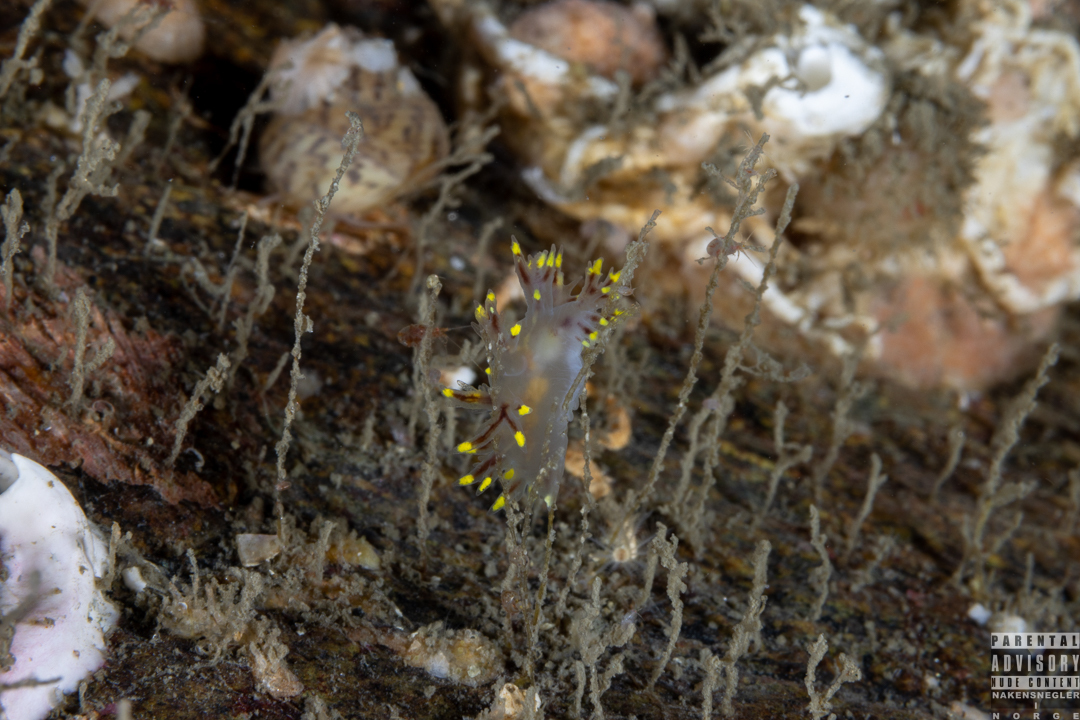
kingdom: Animalia
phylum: Mollusca
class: Gastropoda
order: Nudibranchia
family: Dendronotidae
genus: Dendronotus
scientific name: Dendronotus arcticus
